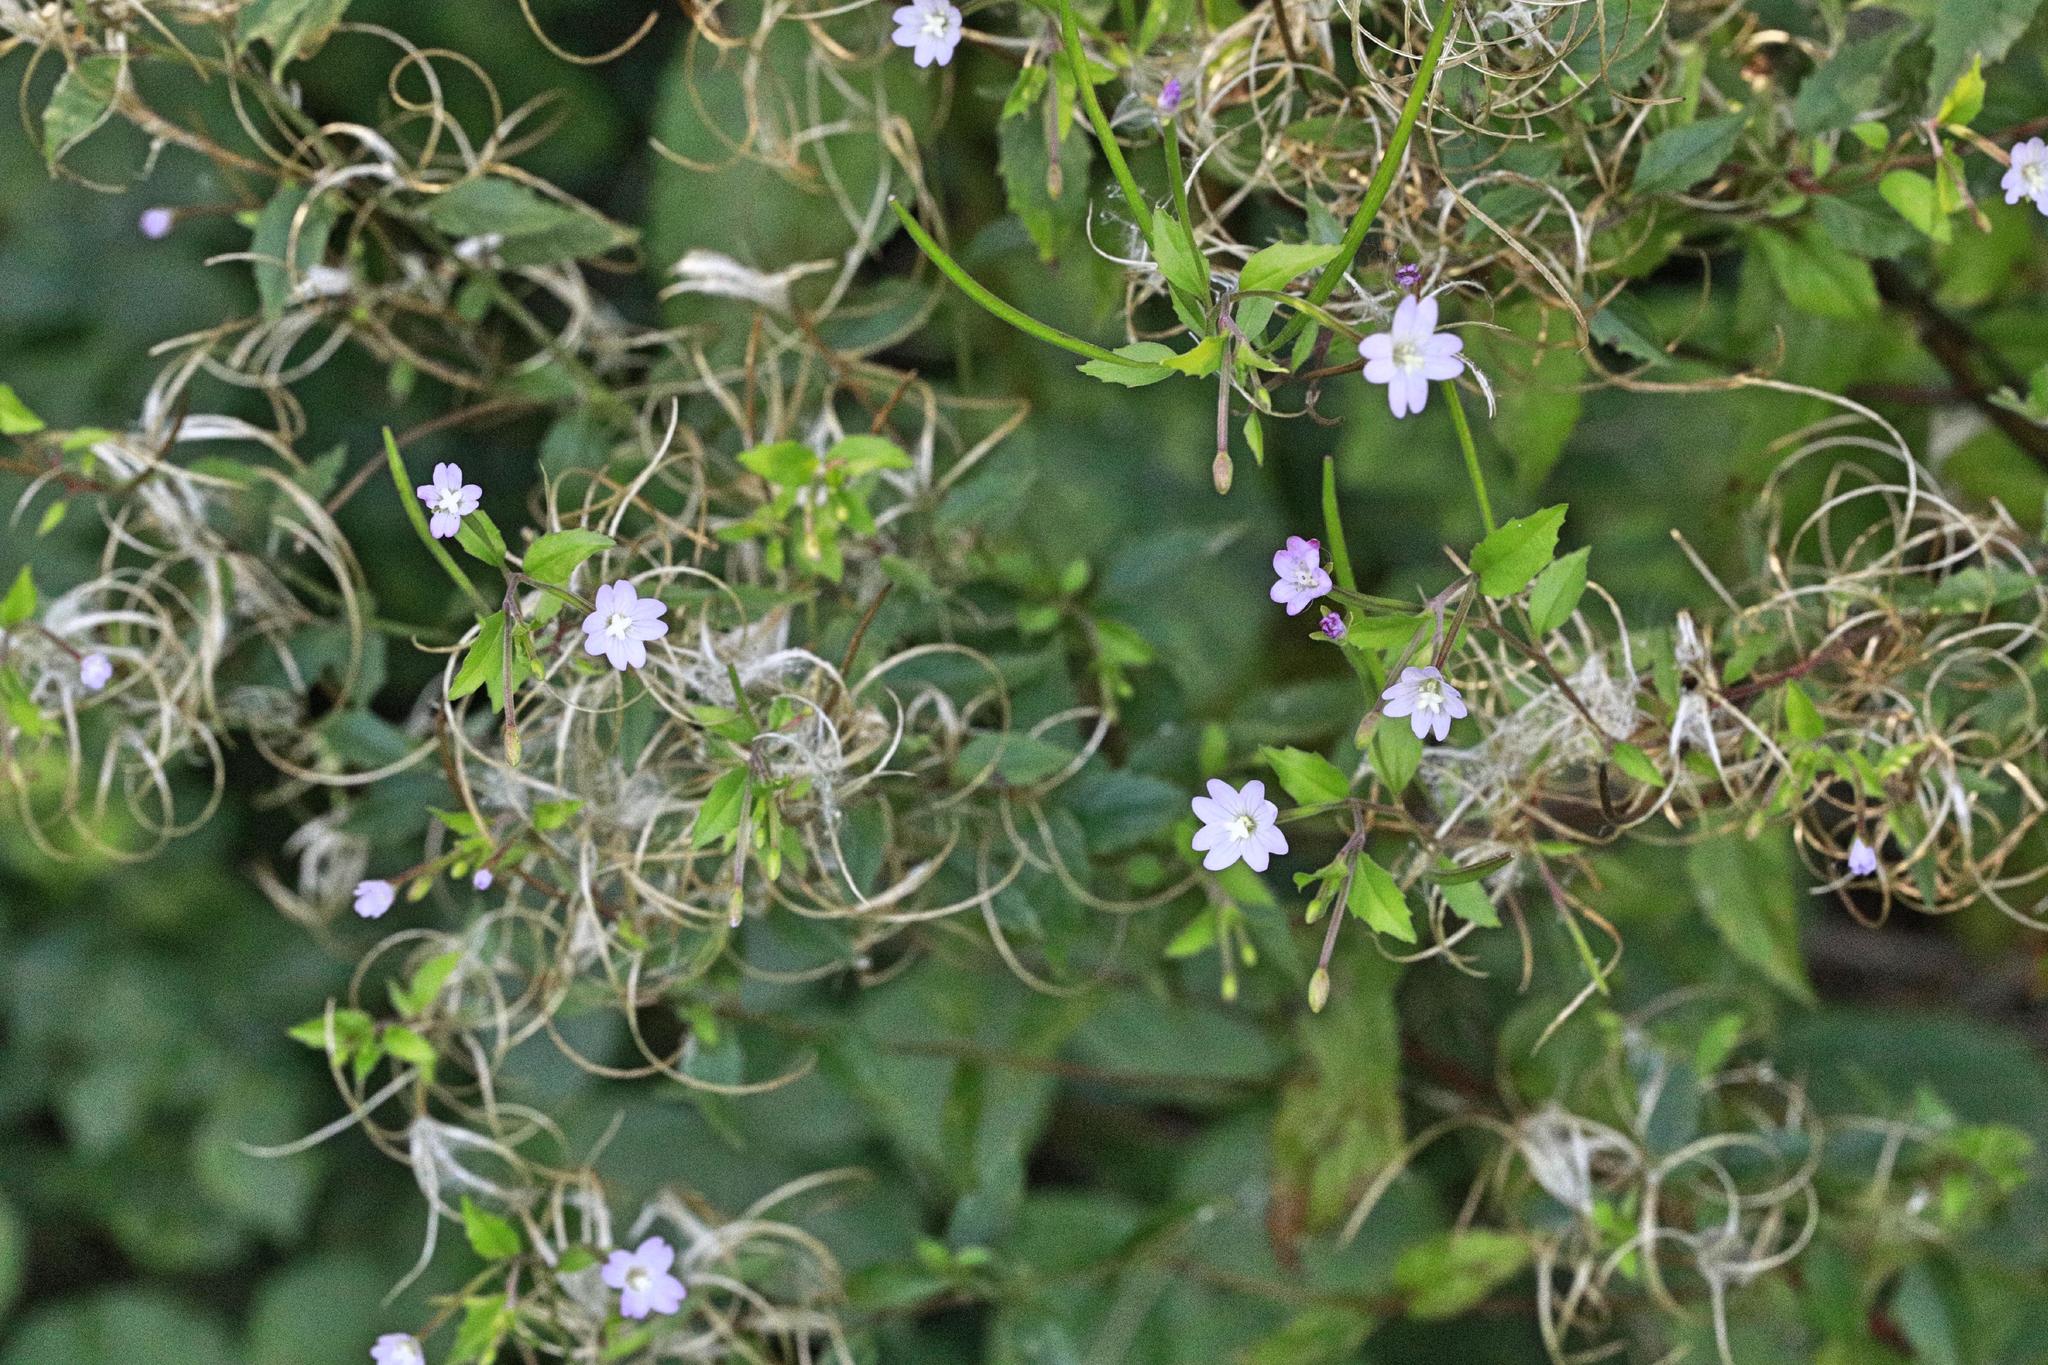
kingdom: Plantae
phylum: Tracheophyta
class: Magnoliopsida
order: Myrtales
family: Onagraceae
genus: Epilobium
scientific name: Epilobium montanum
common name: Broad-leaved willowherb
